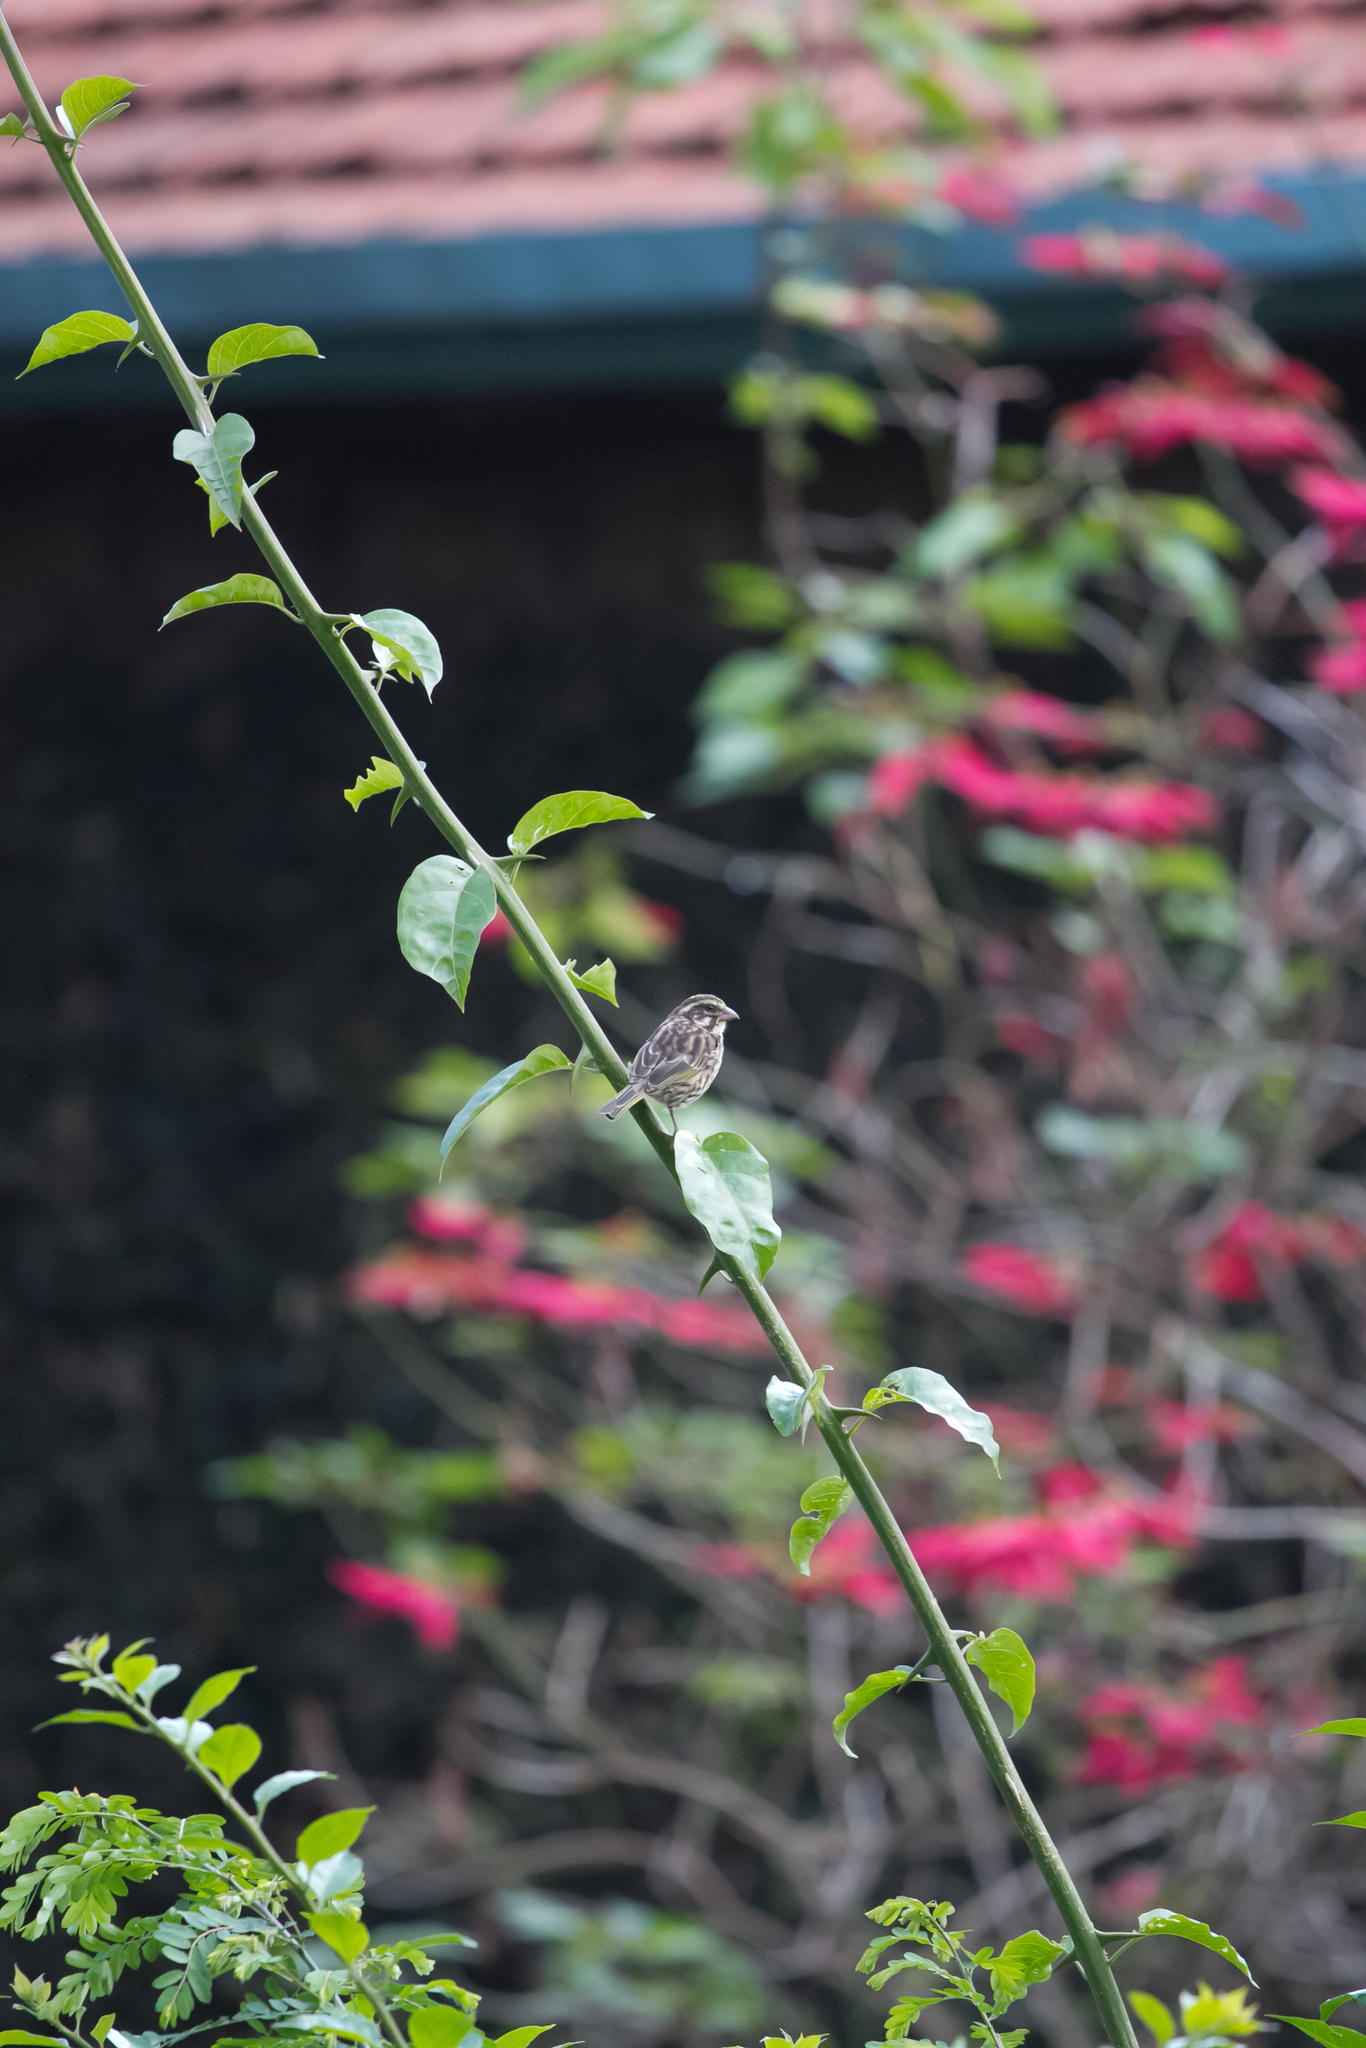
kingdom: Animalia
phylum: Chordata
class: Aves
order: Passeriformes
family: Fringillidae
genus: Crithagra
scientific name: Crithagra striolata
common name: Streaky seedeater
